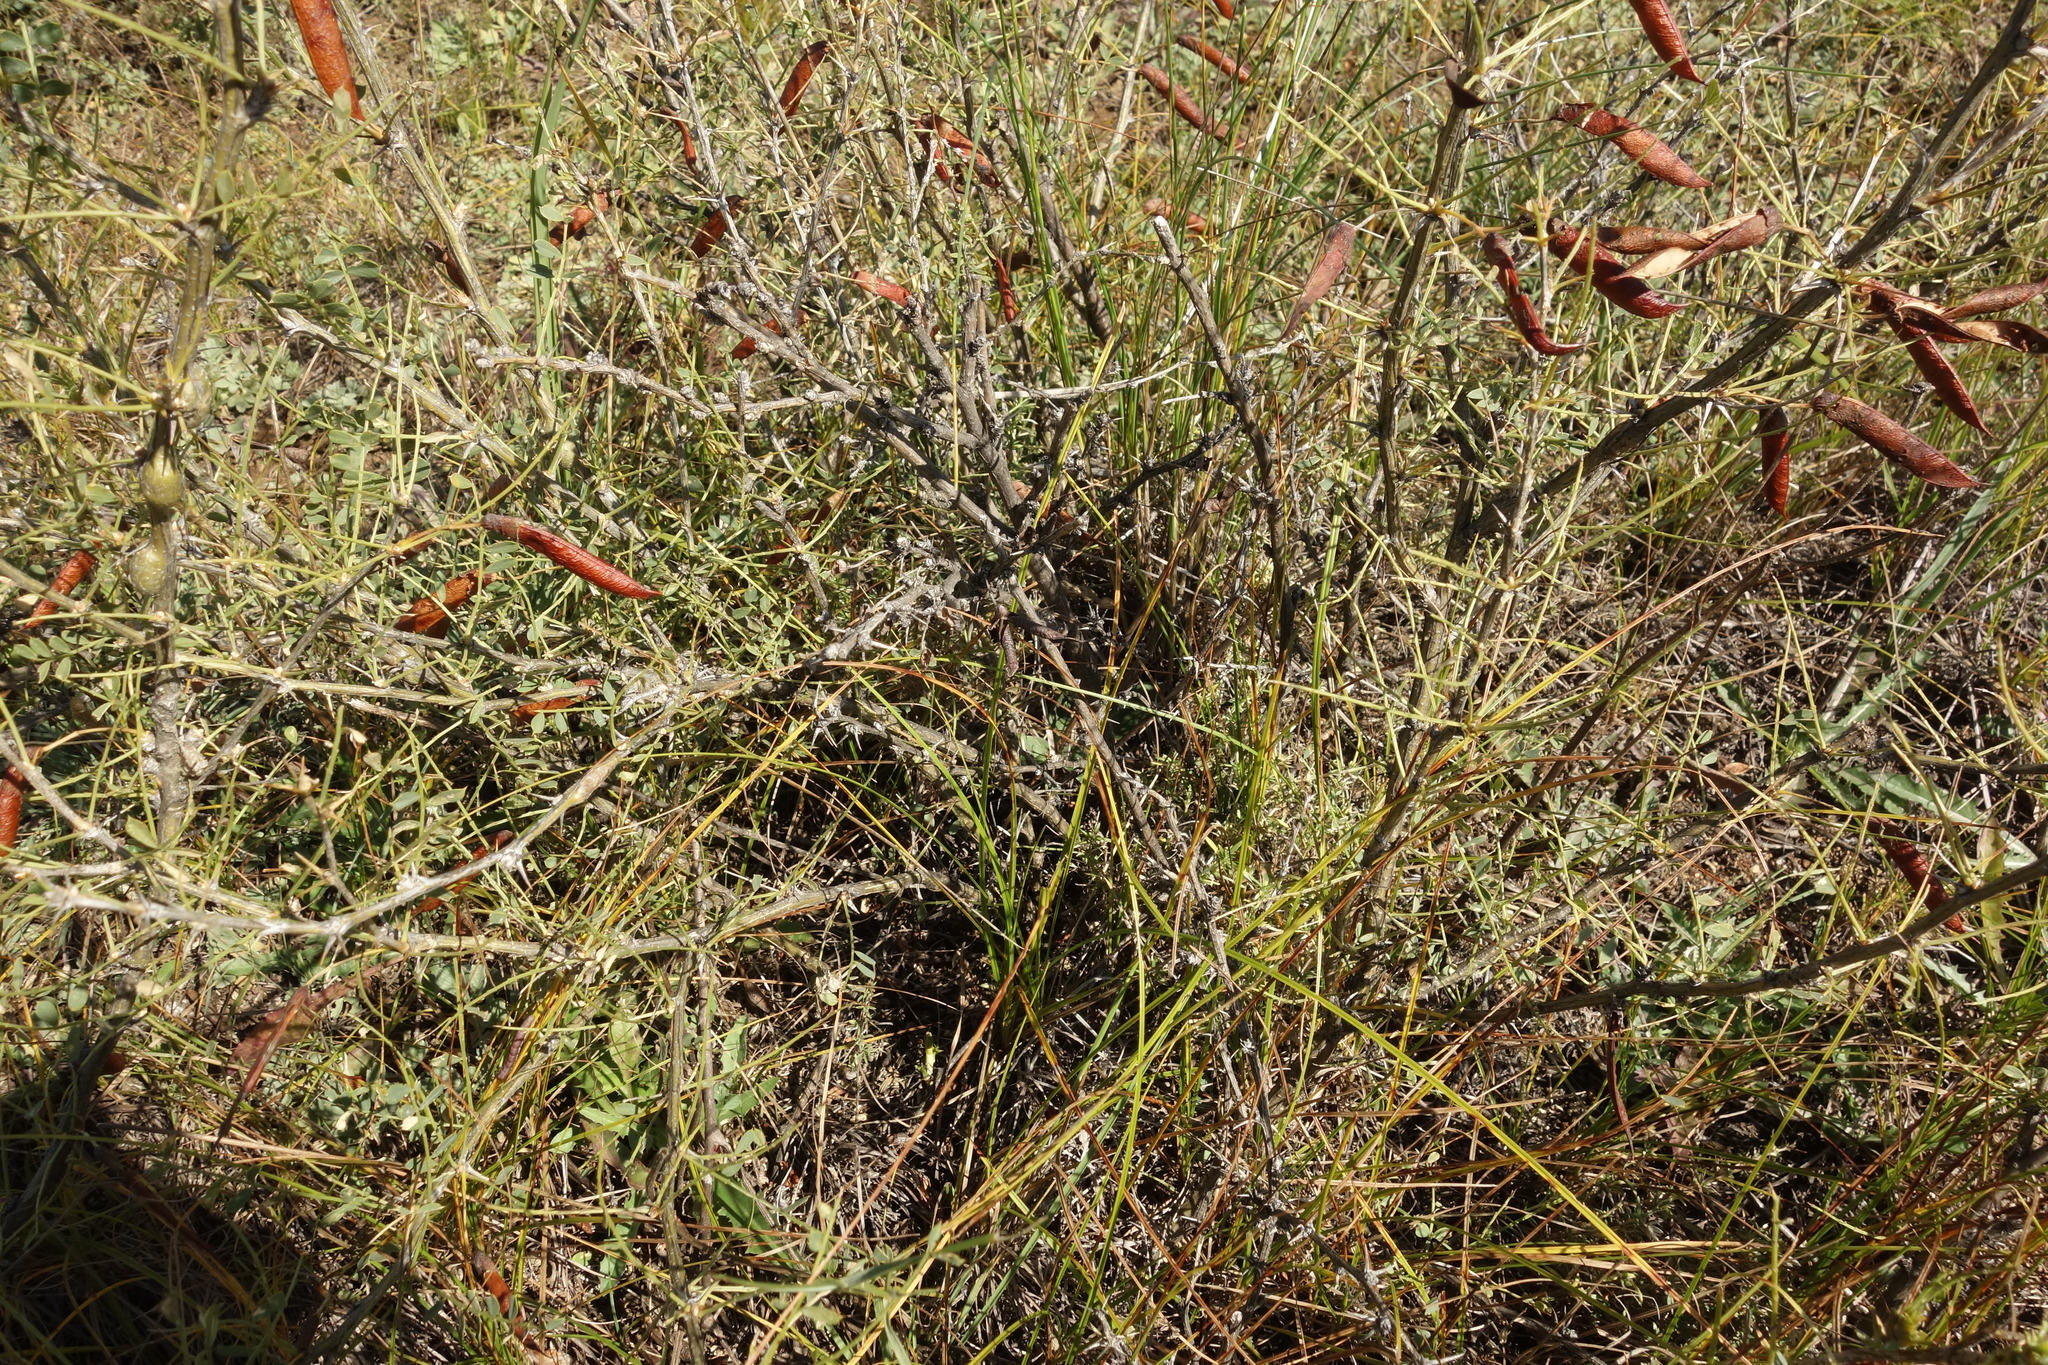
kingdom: Plantae
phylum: Tracheophyta
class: Magnoliopsida
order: Fabales
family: Fabaceae
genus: Caragana
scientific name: Caragana buriatica
